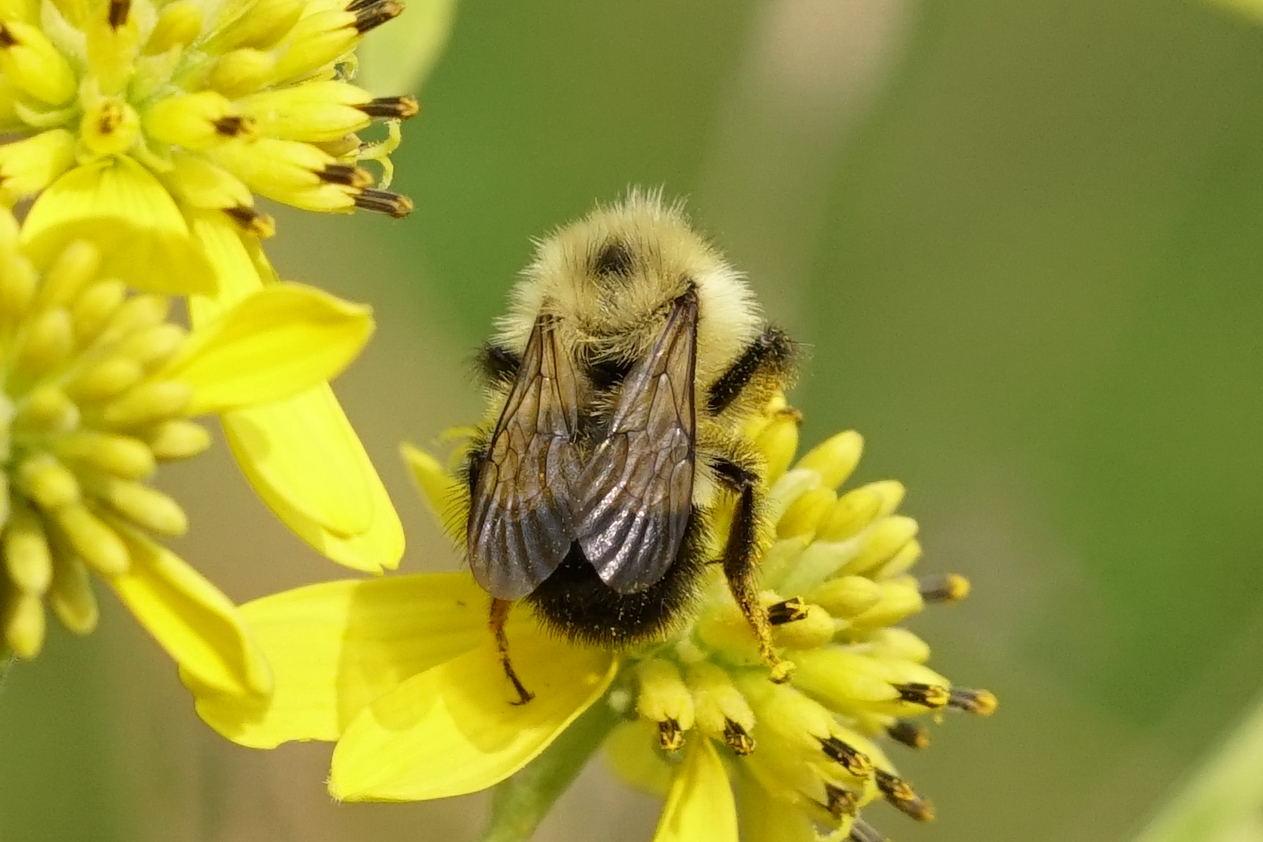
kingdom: Animalia
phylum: Arthropoda
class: Insecta
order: Hymenoptera
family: Apidae
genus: Pyrobombus
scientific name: Pyrobombus
